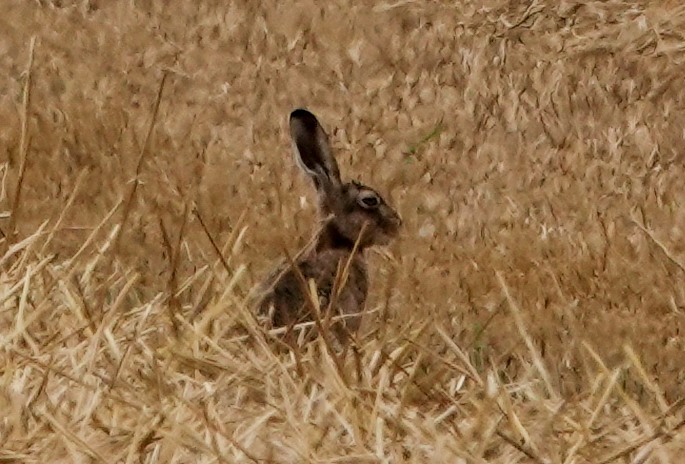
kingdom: Animalia
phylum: Chordata
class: Mammalia
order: Lagomorpha
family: Leporidae
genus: Lepus
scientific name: Lepus europaeus
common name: European hare
